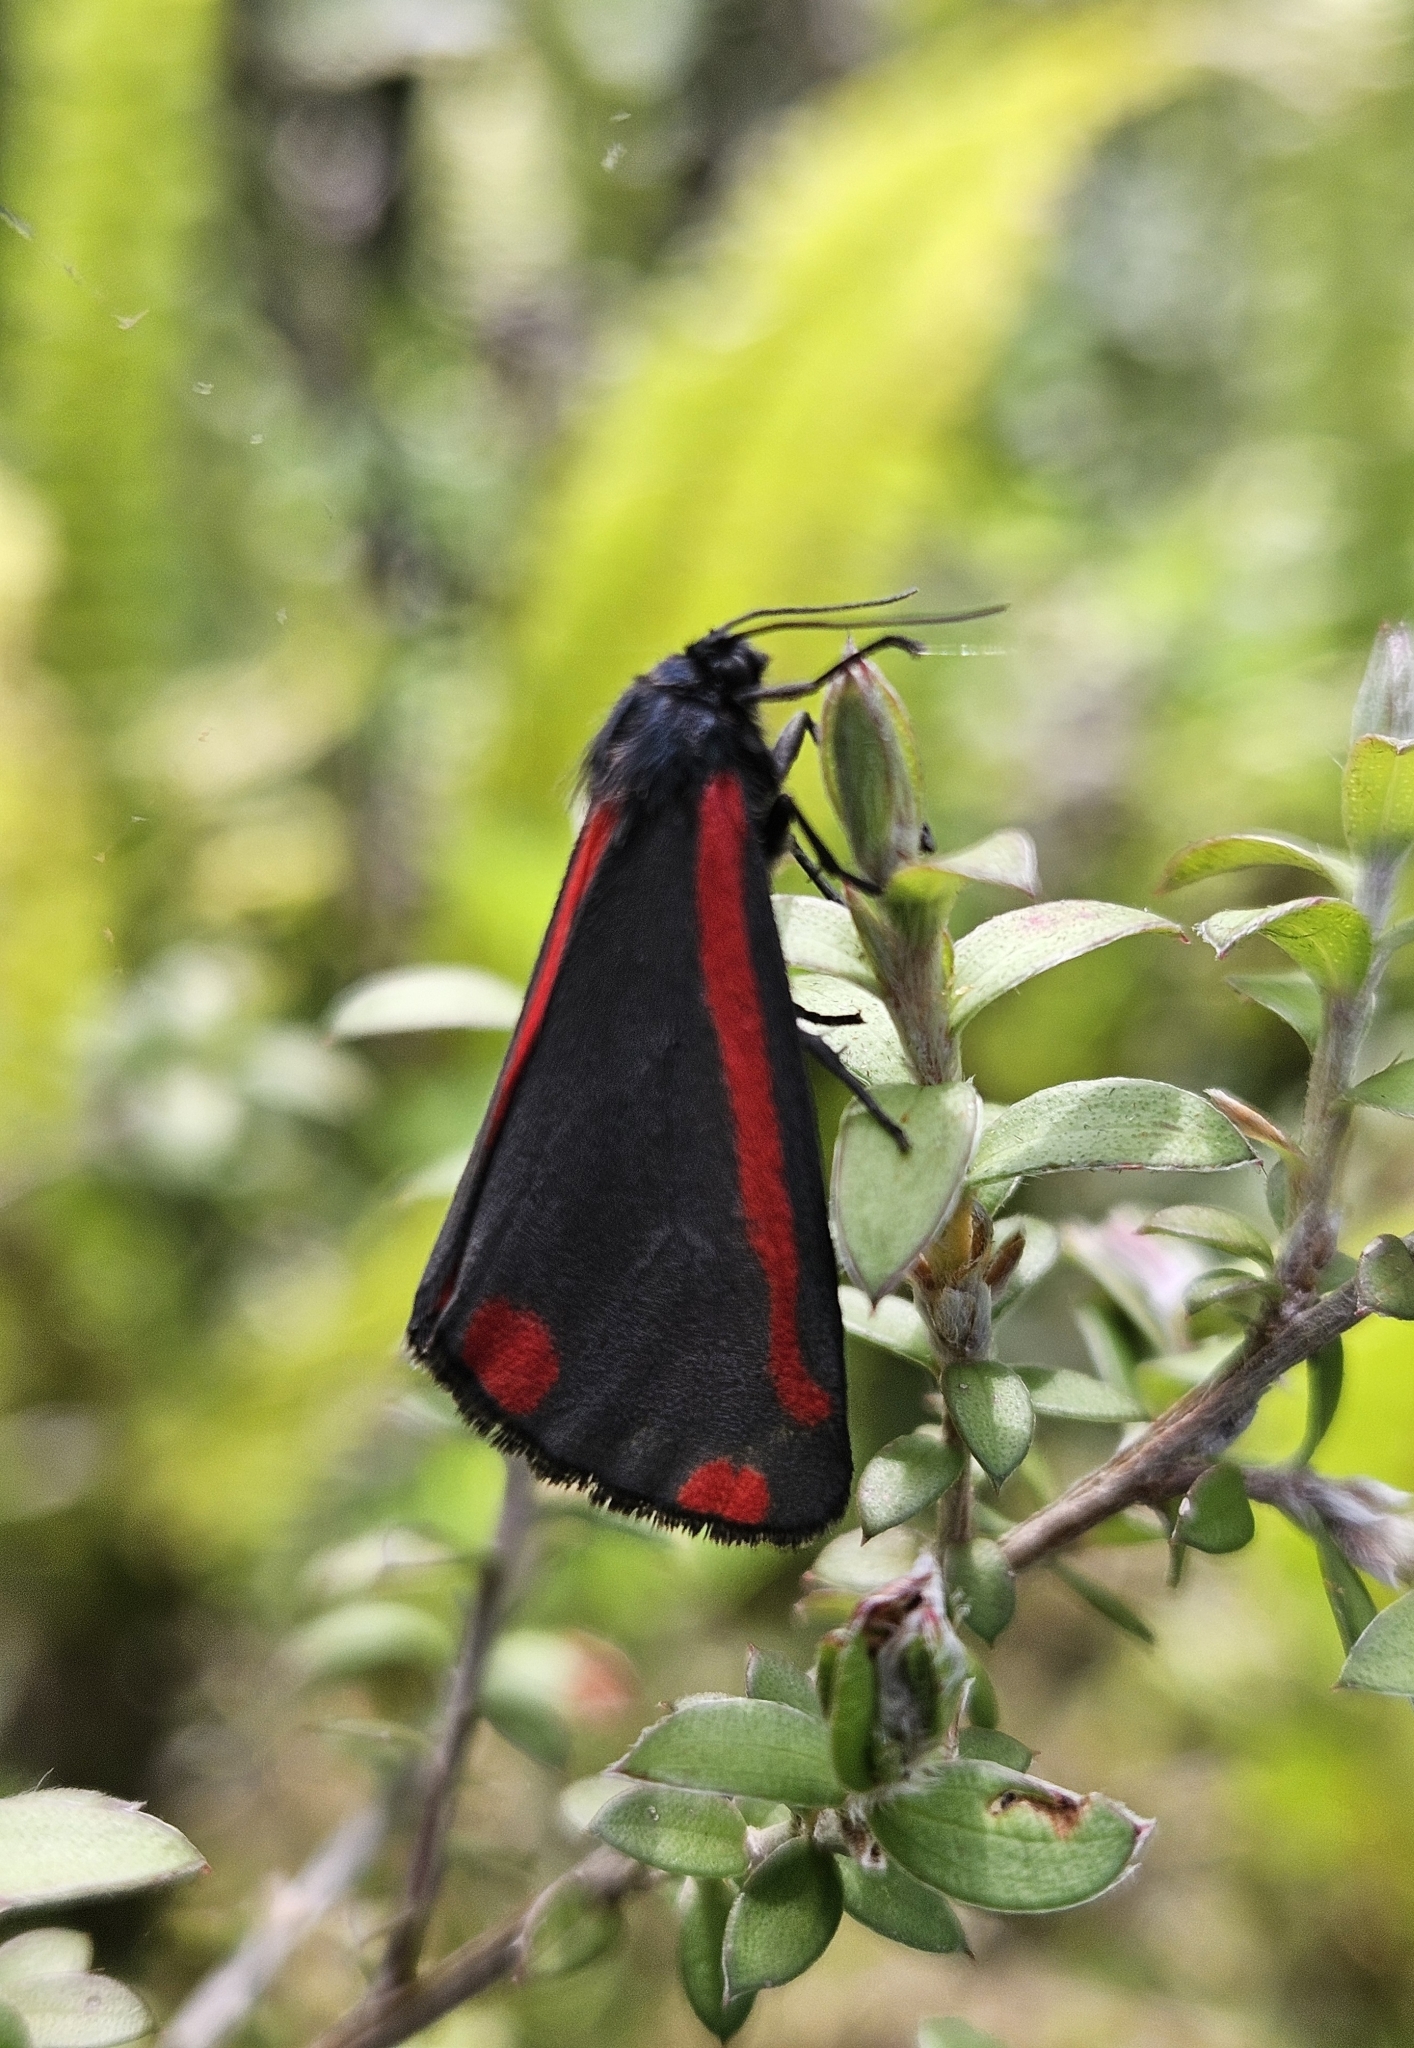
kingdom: Animalia
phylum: Arthropoda
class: Insecta
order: Lepidoptera
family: Erebidae
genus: Tyria
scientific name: Tyria jacobaeae
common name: Cinnabar
